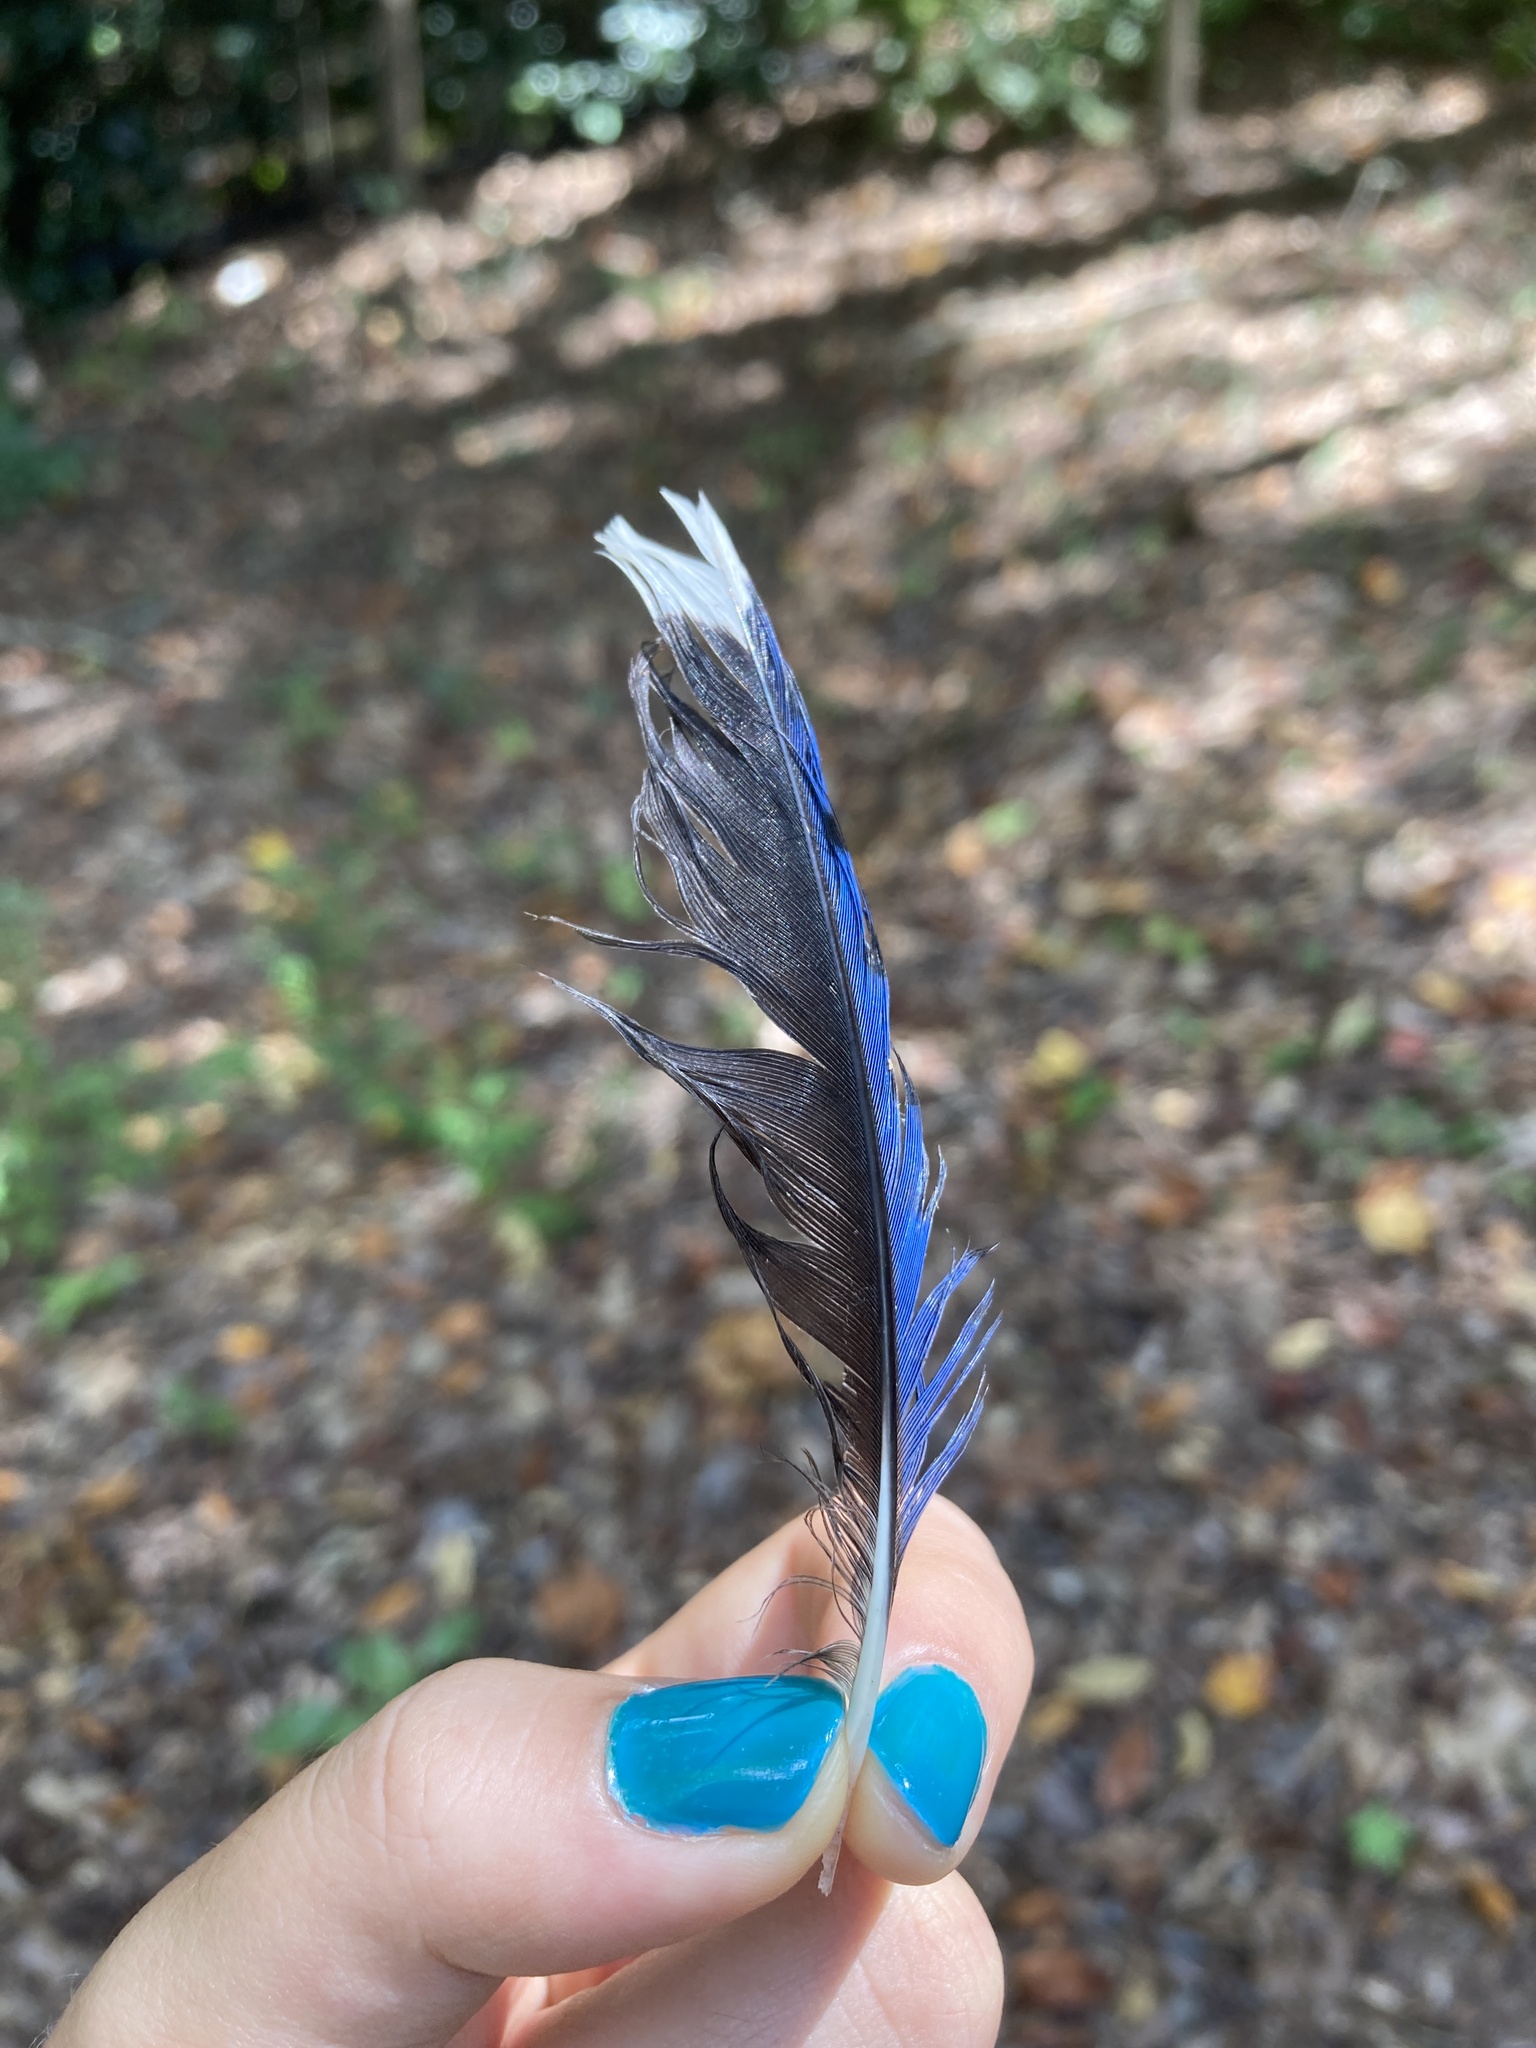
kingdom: Animalia
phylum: Chordata
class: Aves
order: Passeriformes
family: Corvidae
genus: Cyanocitta
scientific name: Cyanocitta cristata
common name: Blue jay
